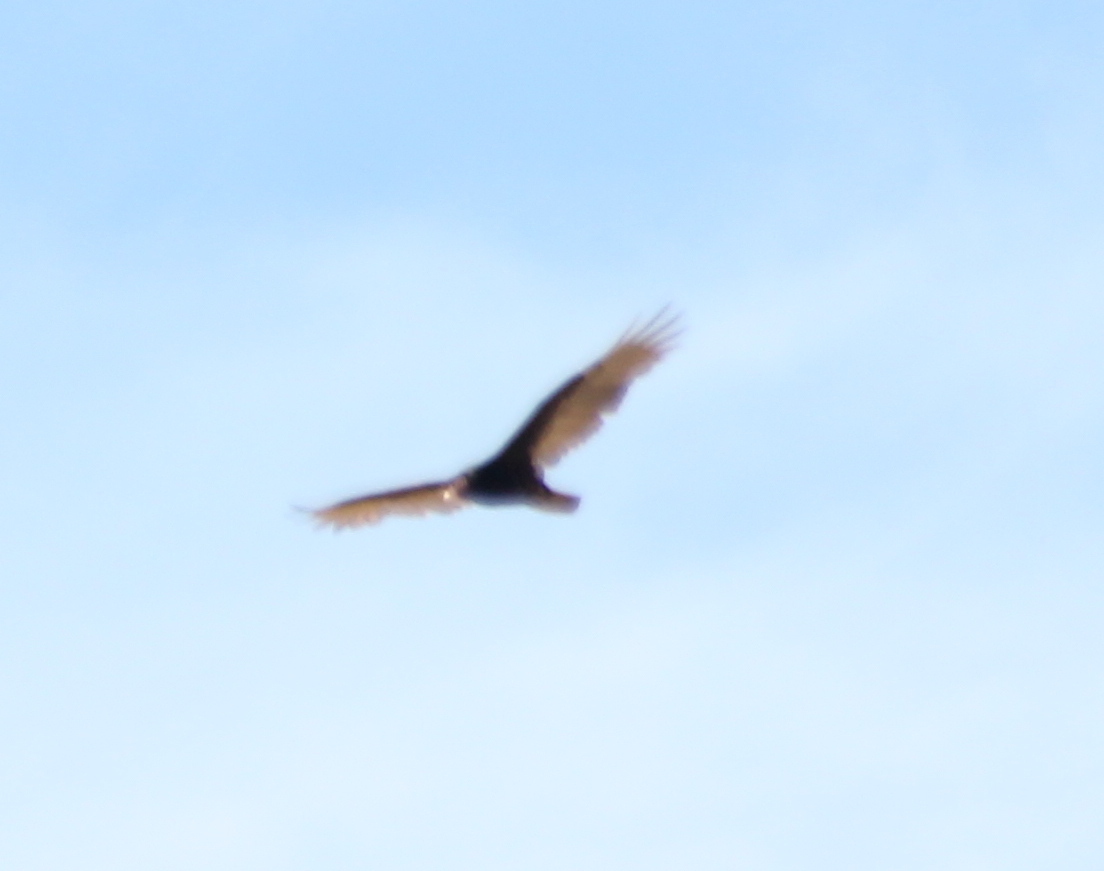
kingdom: Animalia
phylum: Chordata
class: Aves
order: Accipitriformes
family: Cathartidae
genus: Cathartes
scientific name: Cathartes aura
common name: Turkey vulture
